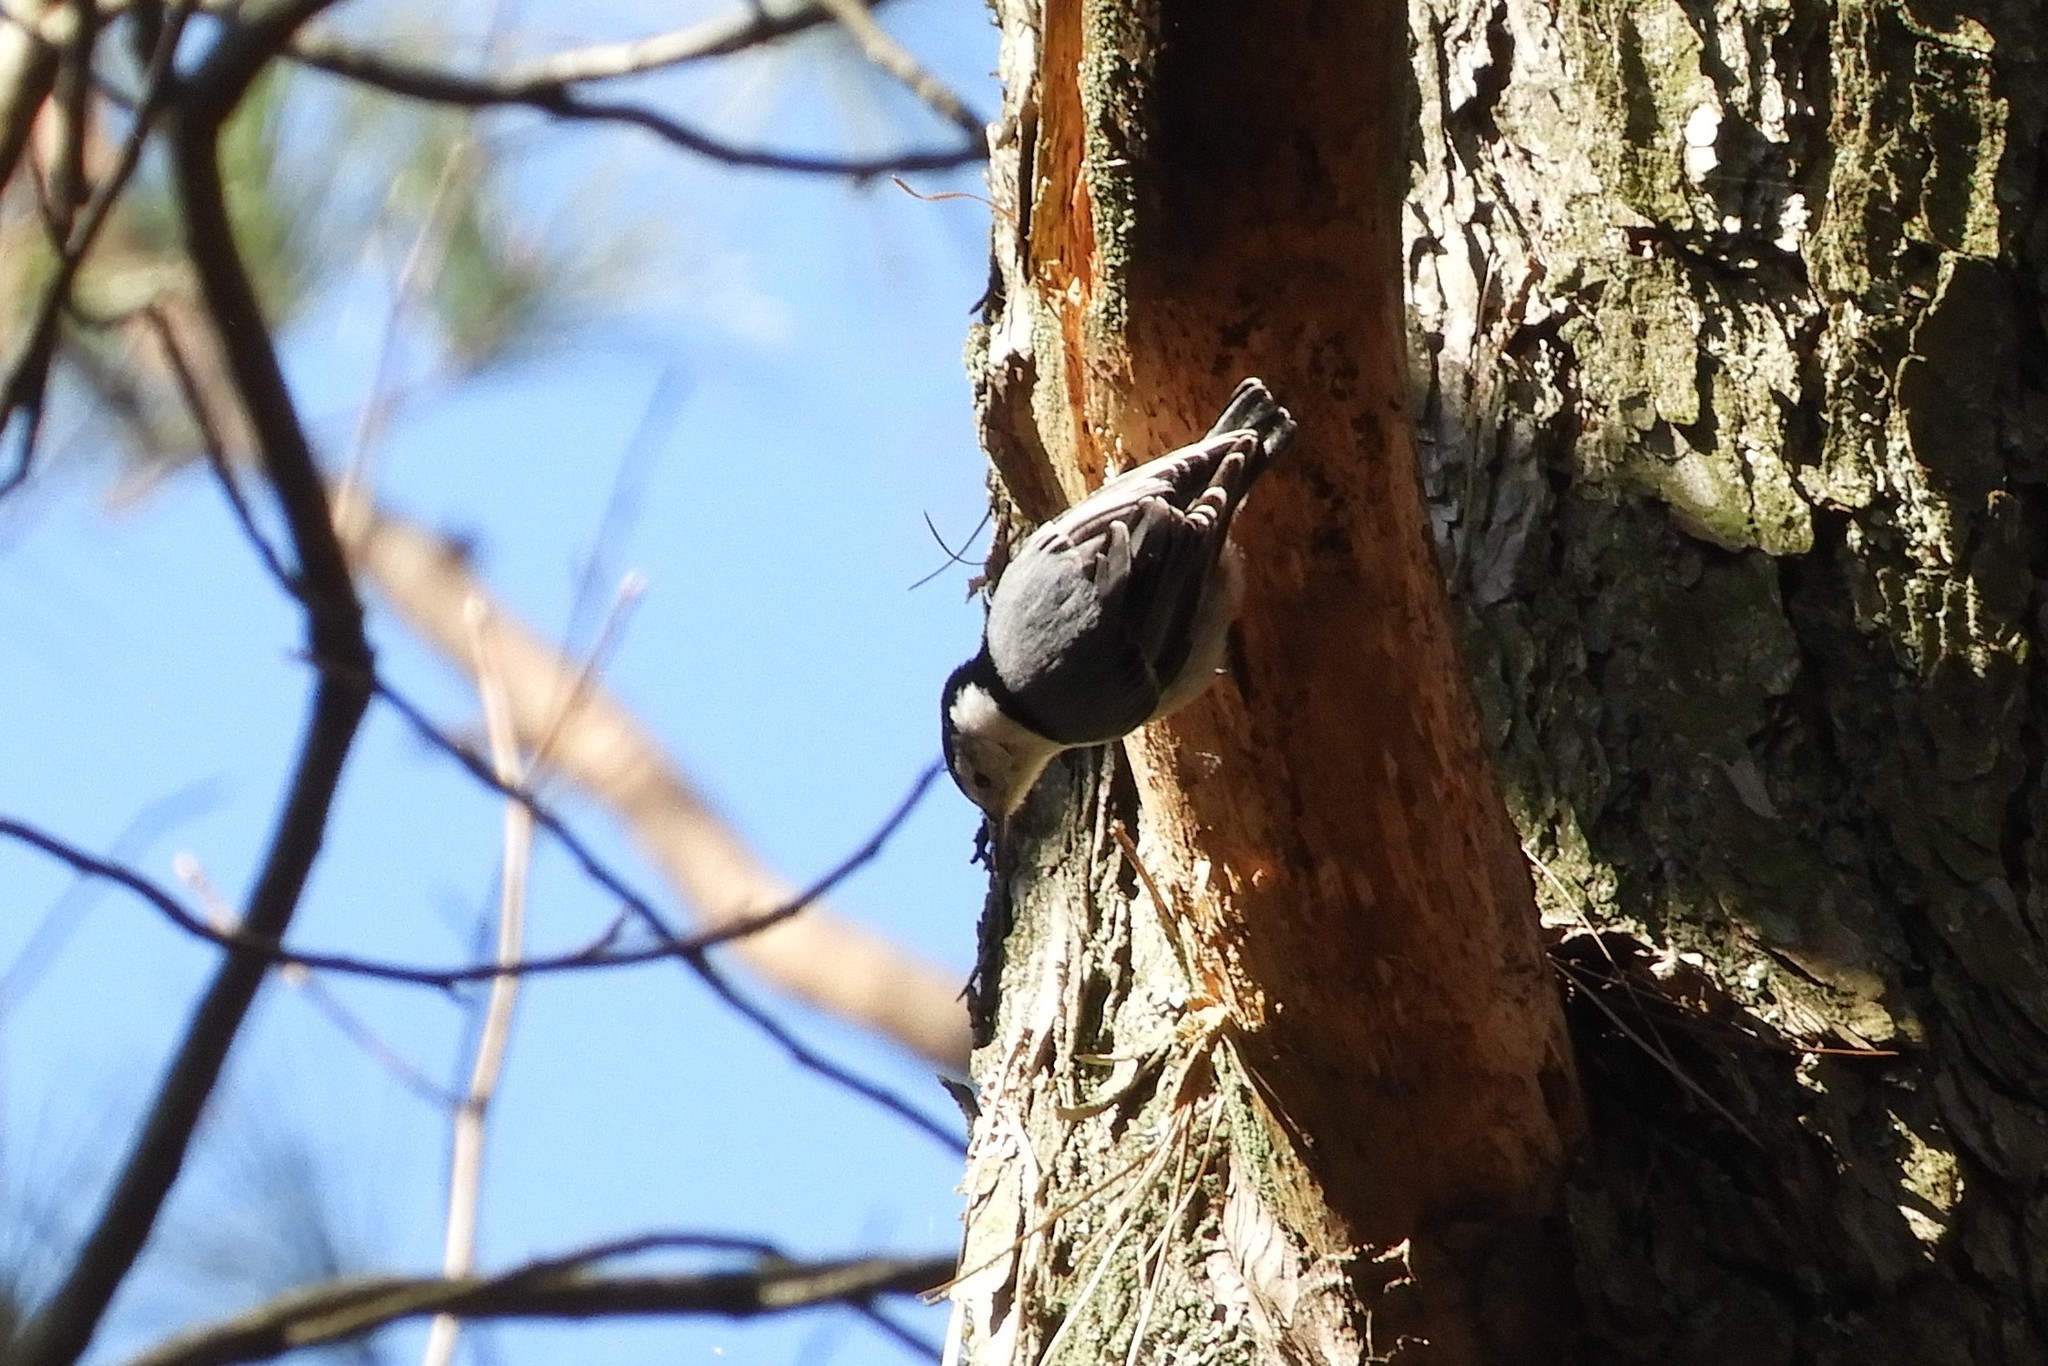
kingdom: Animalia
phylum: Chordata
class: Aves
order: Passeriformes
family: Sittidae
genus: Sitta
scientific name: Sitta carolinensis
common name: White-breasted nuthatch
